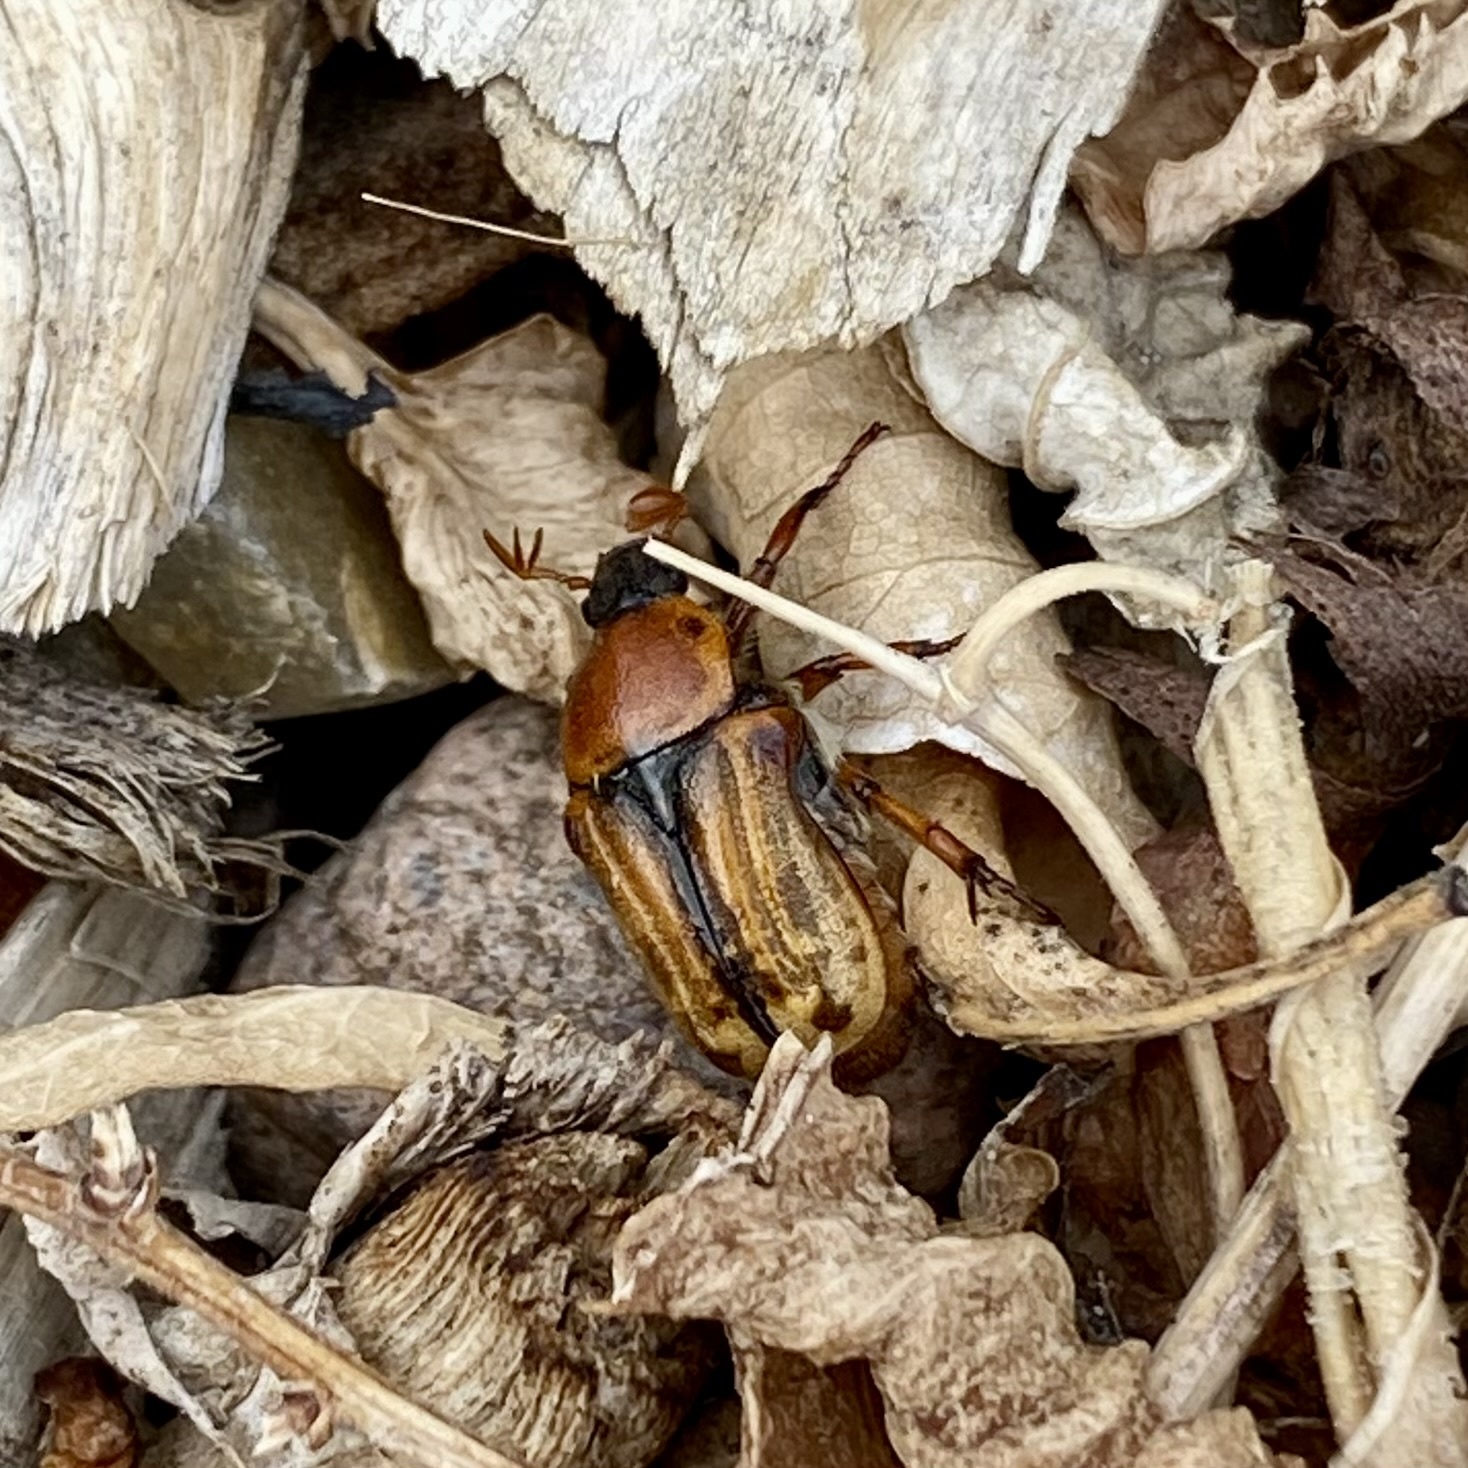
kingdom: Animalia
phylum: Arthropoda
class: Insecta
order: Coleoptera
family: Scarabaeidae
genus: Euphoria
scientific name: Euphoria kernii
